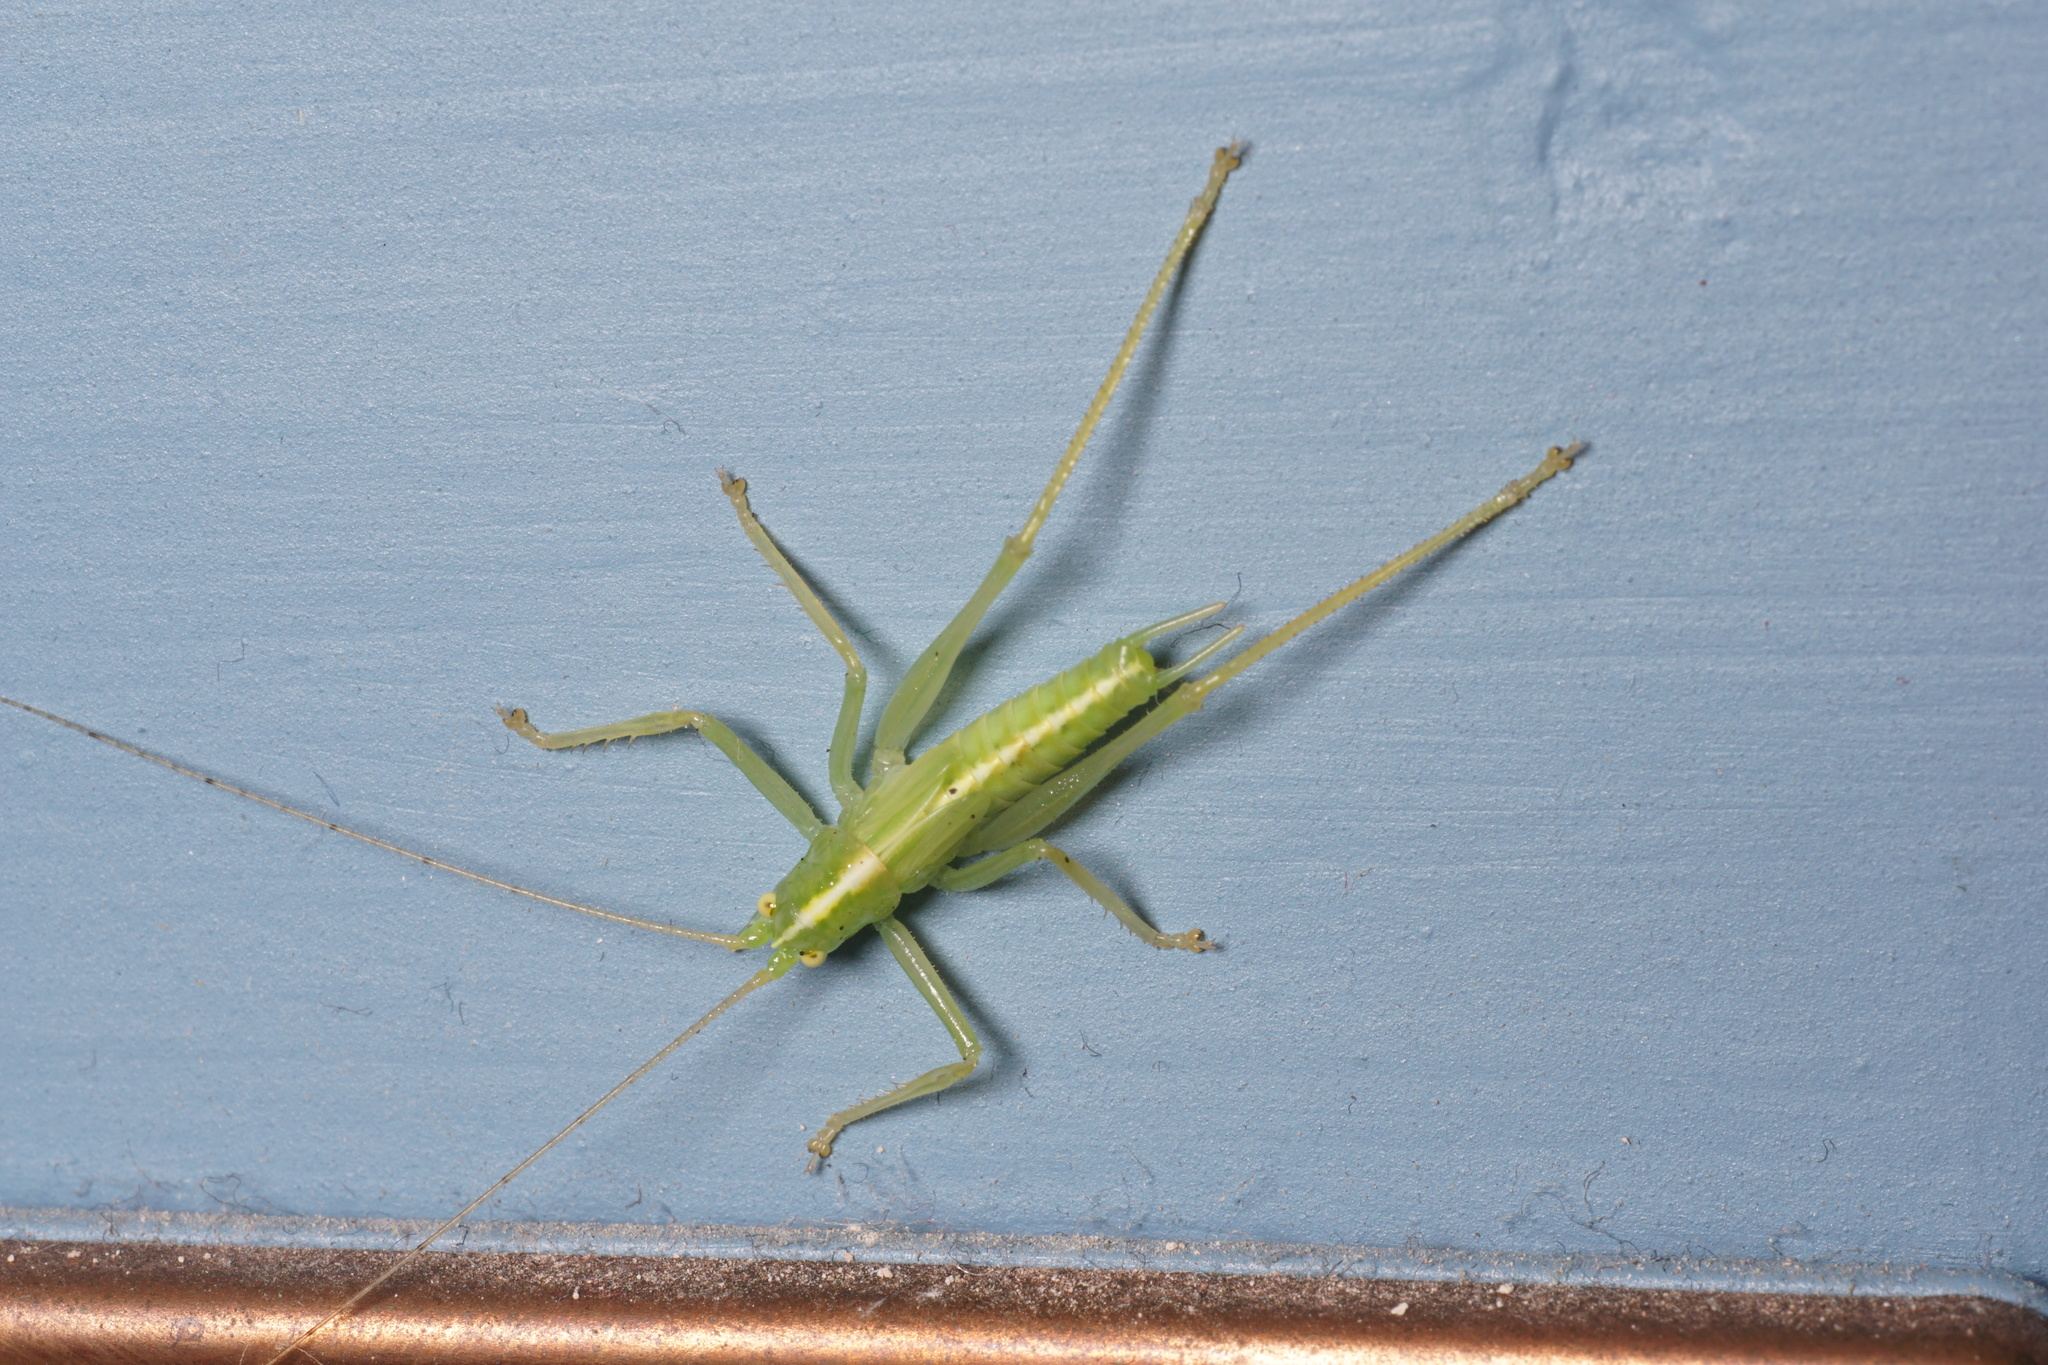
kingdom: Animalia
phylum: Arthropoda
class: Insecta
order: Orthoptera
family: Tettigoniidae
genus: Meconema
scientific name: Meconema thalassinum
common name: Oak bush-cricket
